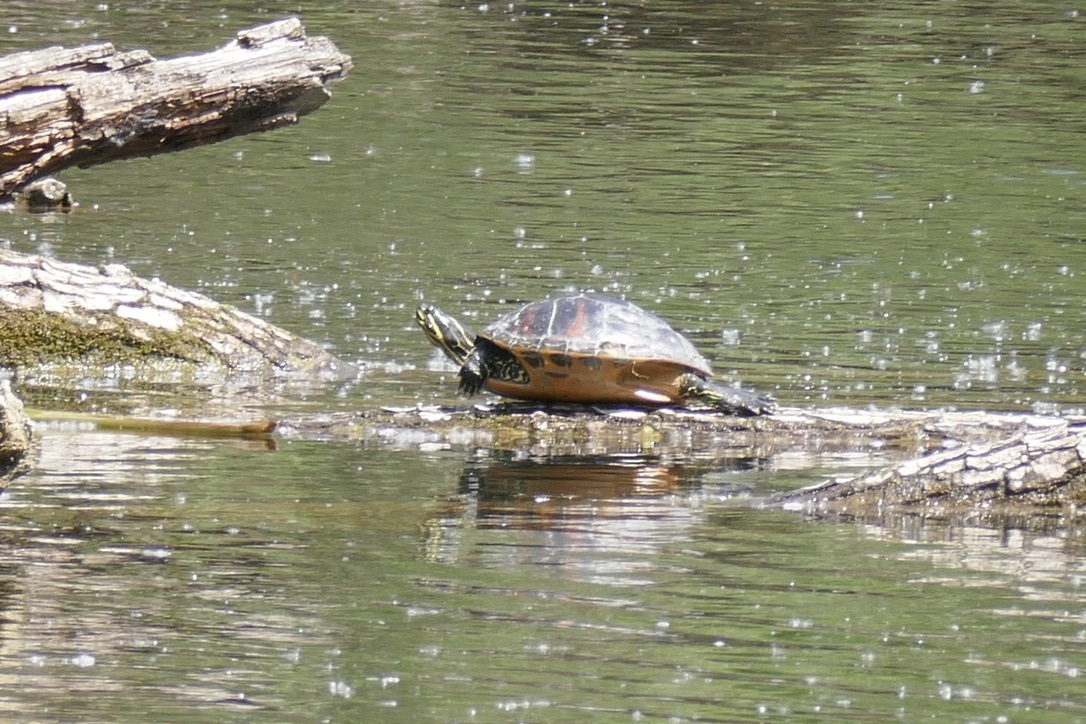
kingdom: Animalia
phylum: Chordata
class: Testudines
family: Emydidae
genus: Trachemys
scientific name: Trachemys scripta
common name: Slider
